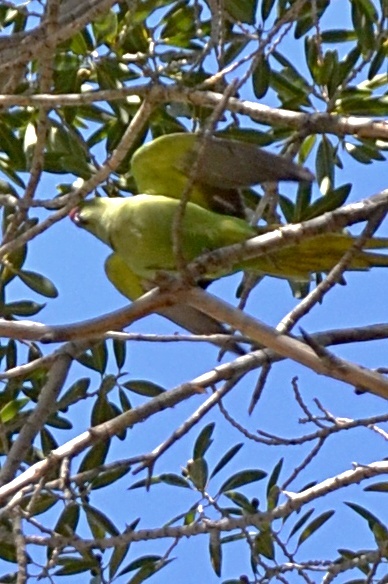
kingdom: Animalia
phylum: Chordata
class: Aves
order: Psittaciformes
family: Psittacidae
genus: Psittacula
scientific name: Psittacula krameri
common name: Rose-ringed parakeet
